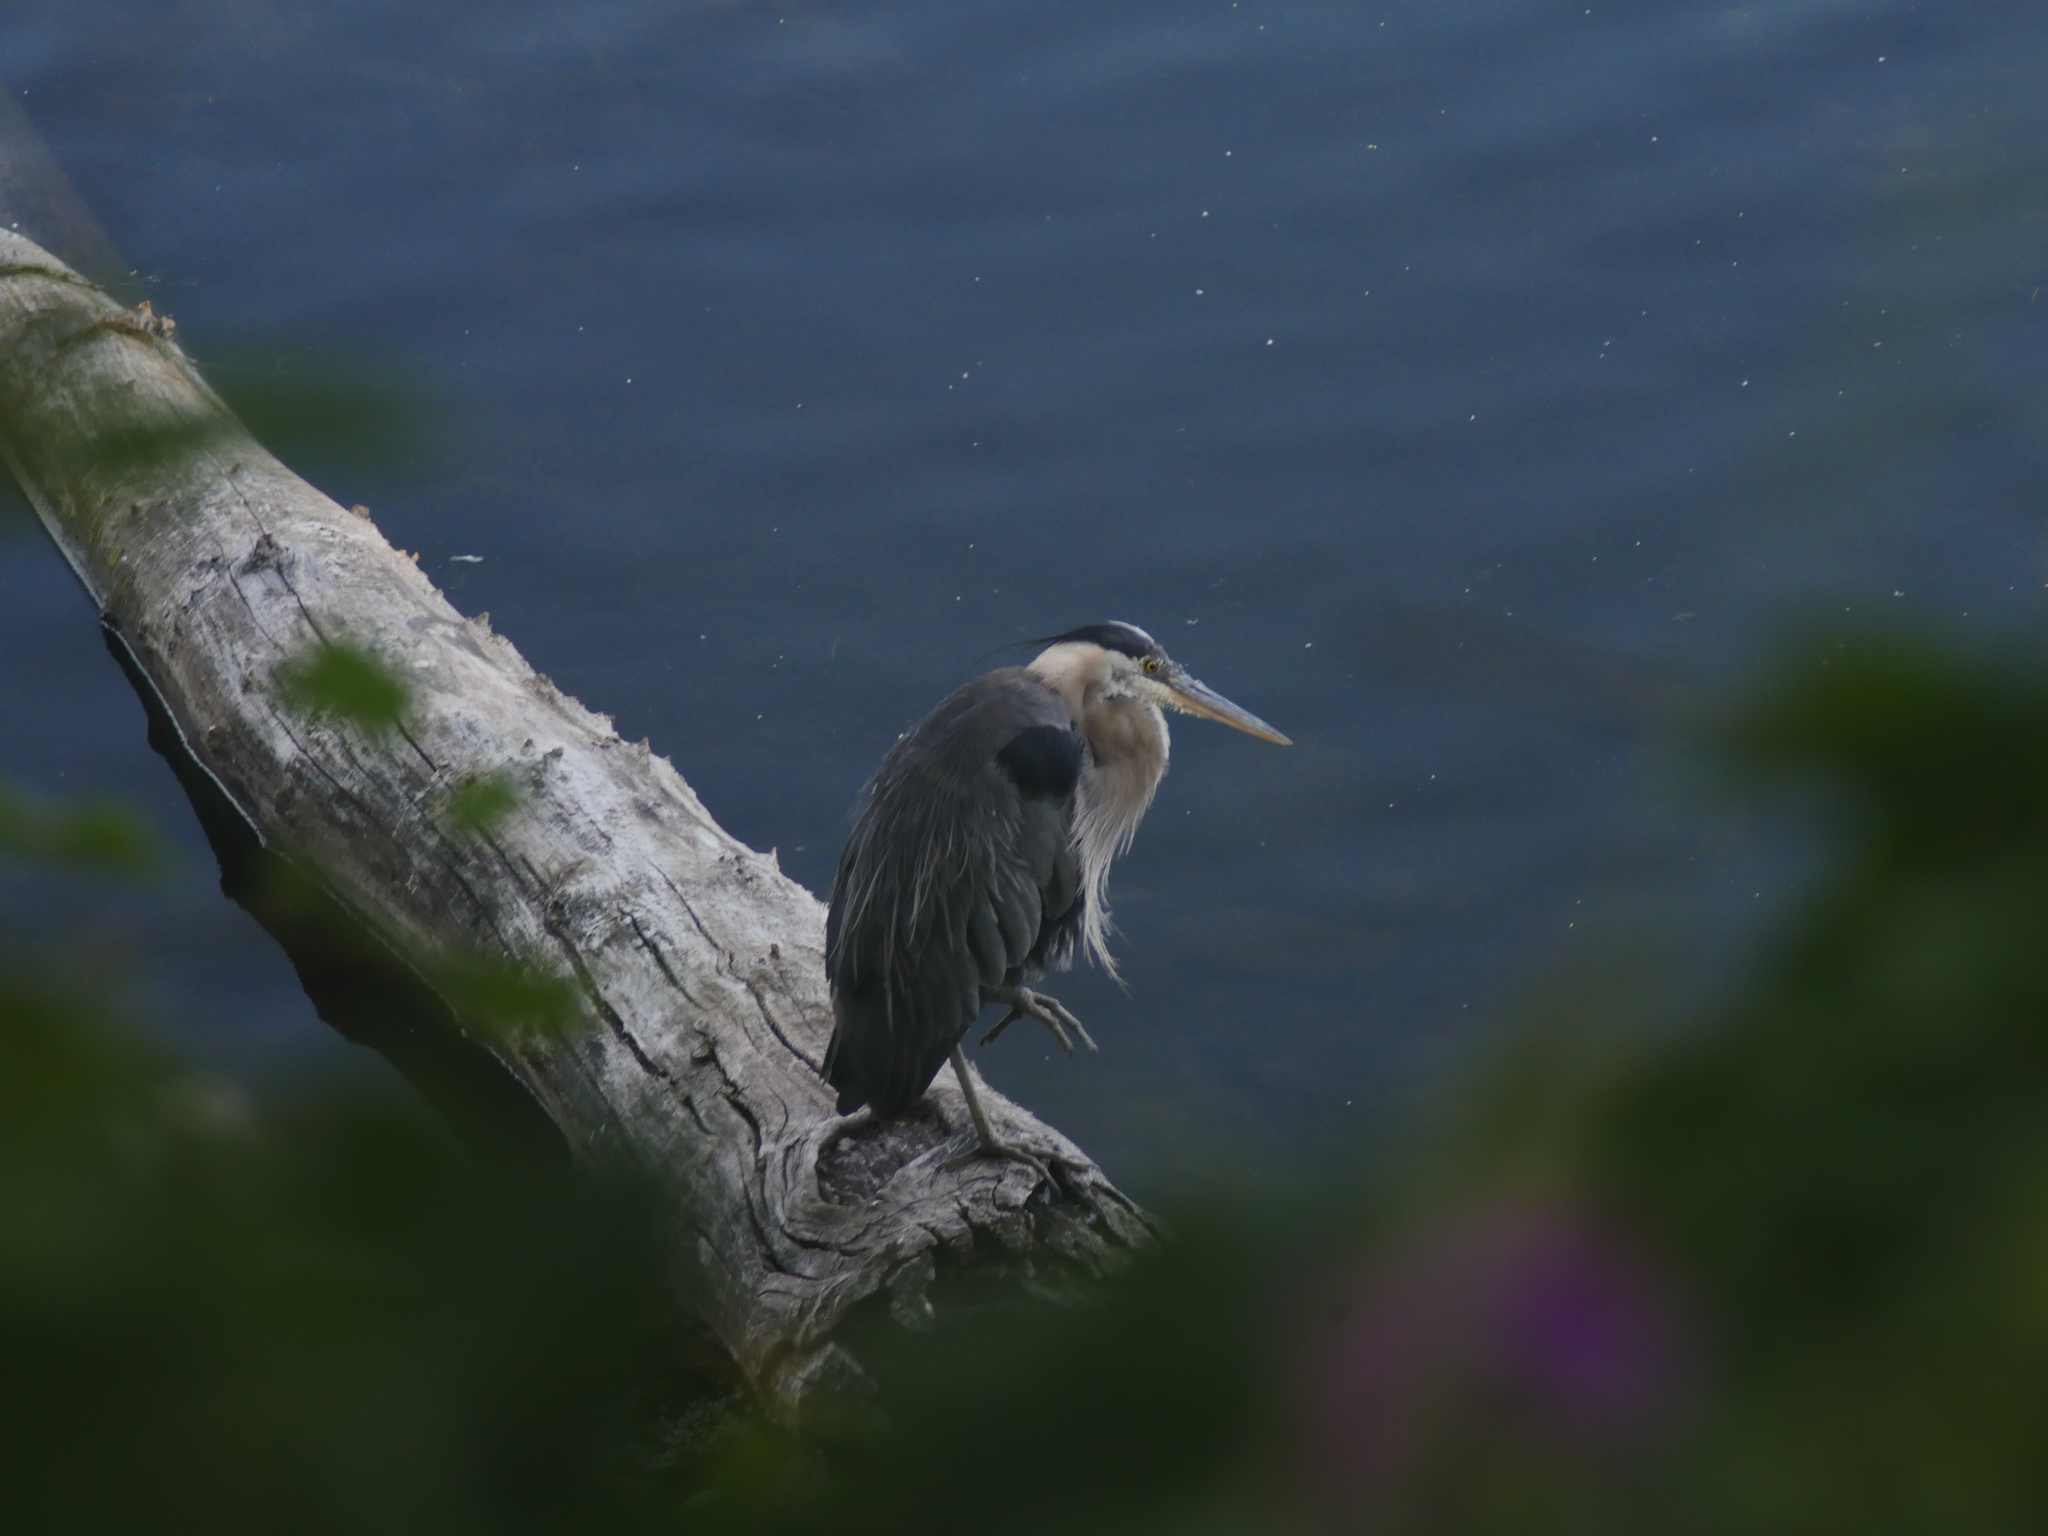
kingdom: Animalia
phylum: Chordata
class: Aves
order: Pelecaniformes
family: Ardeidae
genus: Ardea
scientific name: Ardea herodias
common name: Great blue heron
